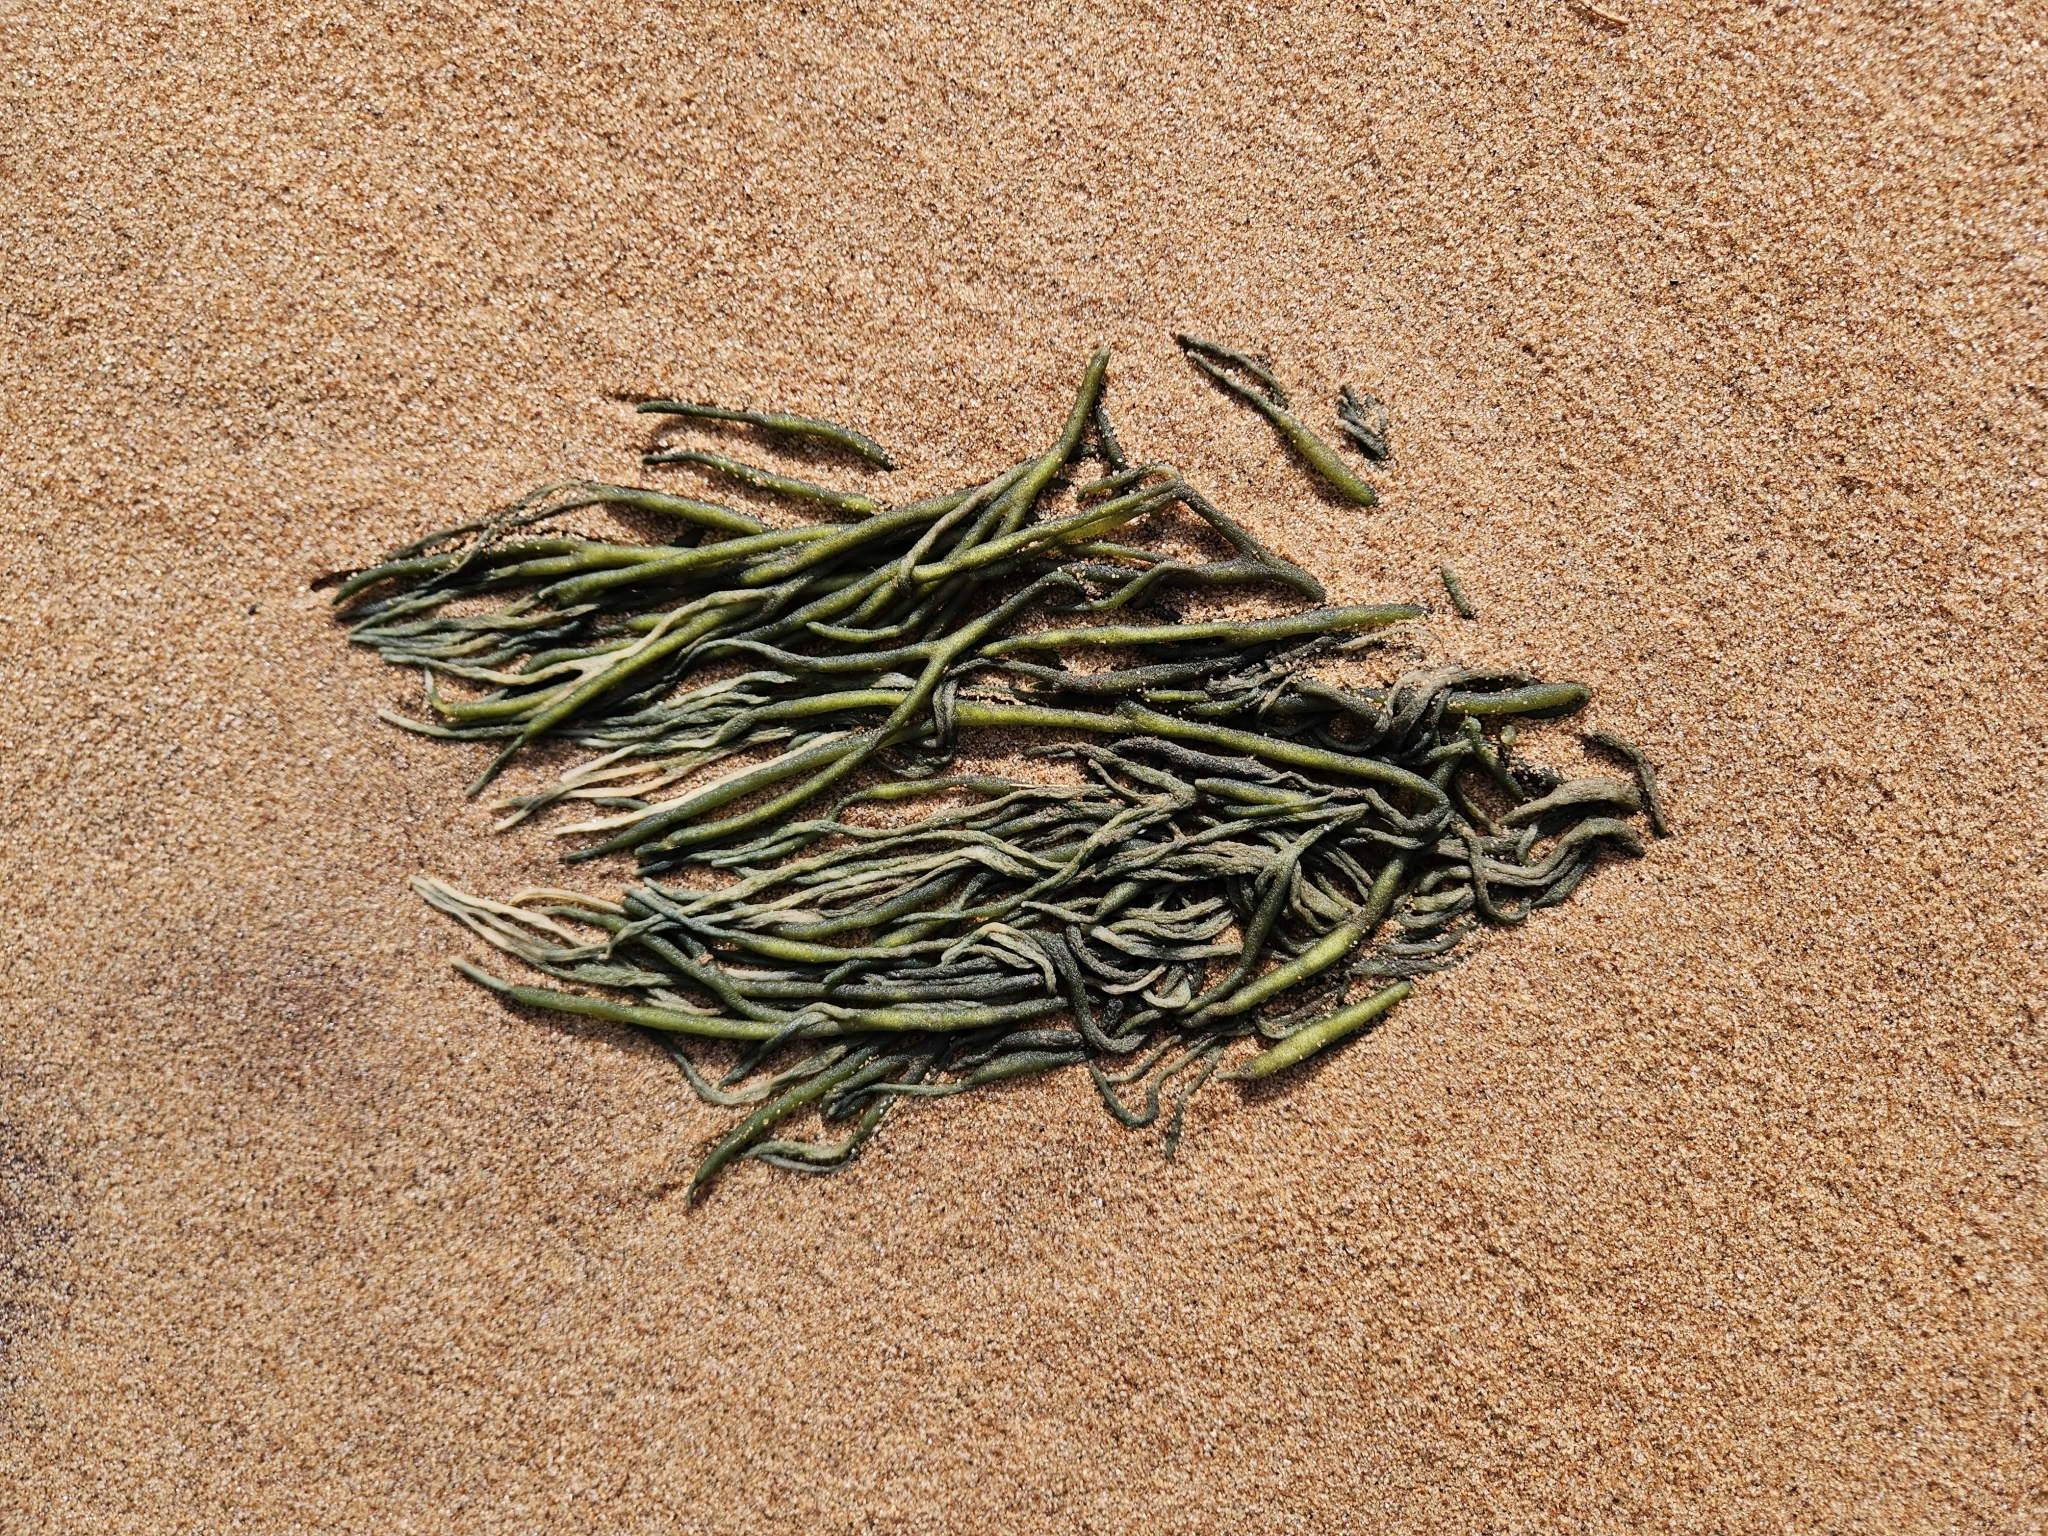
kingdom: Plantae
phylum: Chlorophyta
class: Ulvophyceae
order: Bryopsidales
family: Codiaceae
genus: Codium
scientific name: Codium fragile
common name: Dead man's fingers
